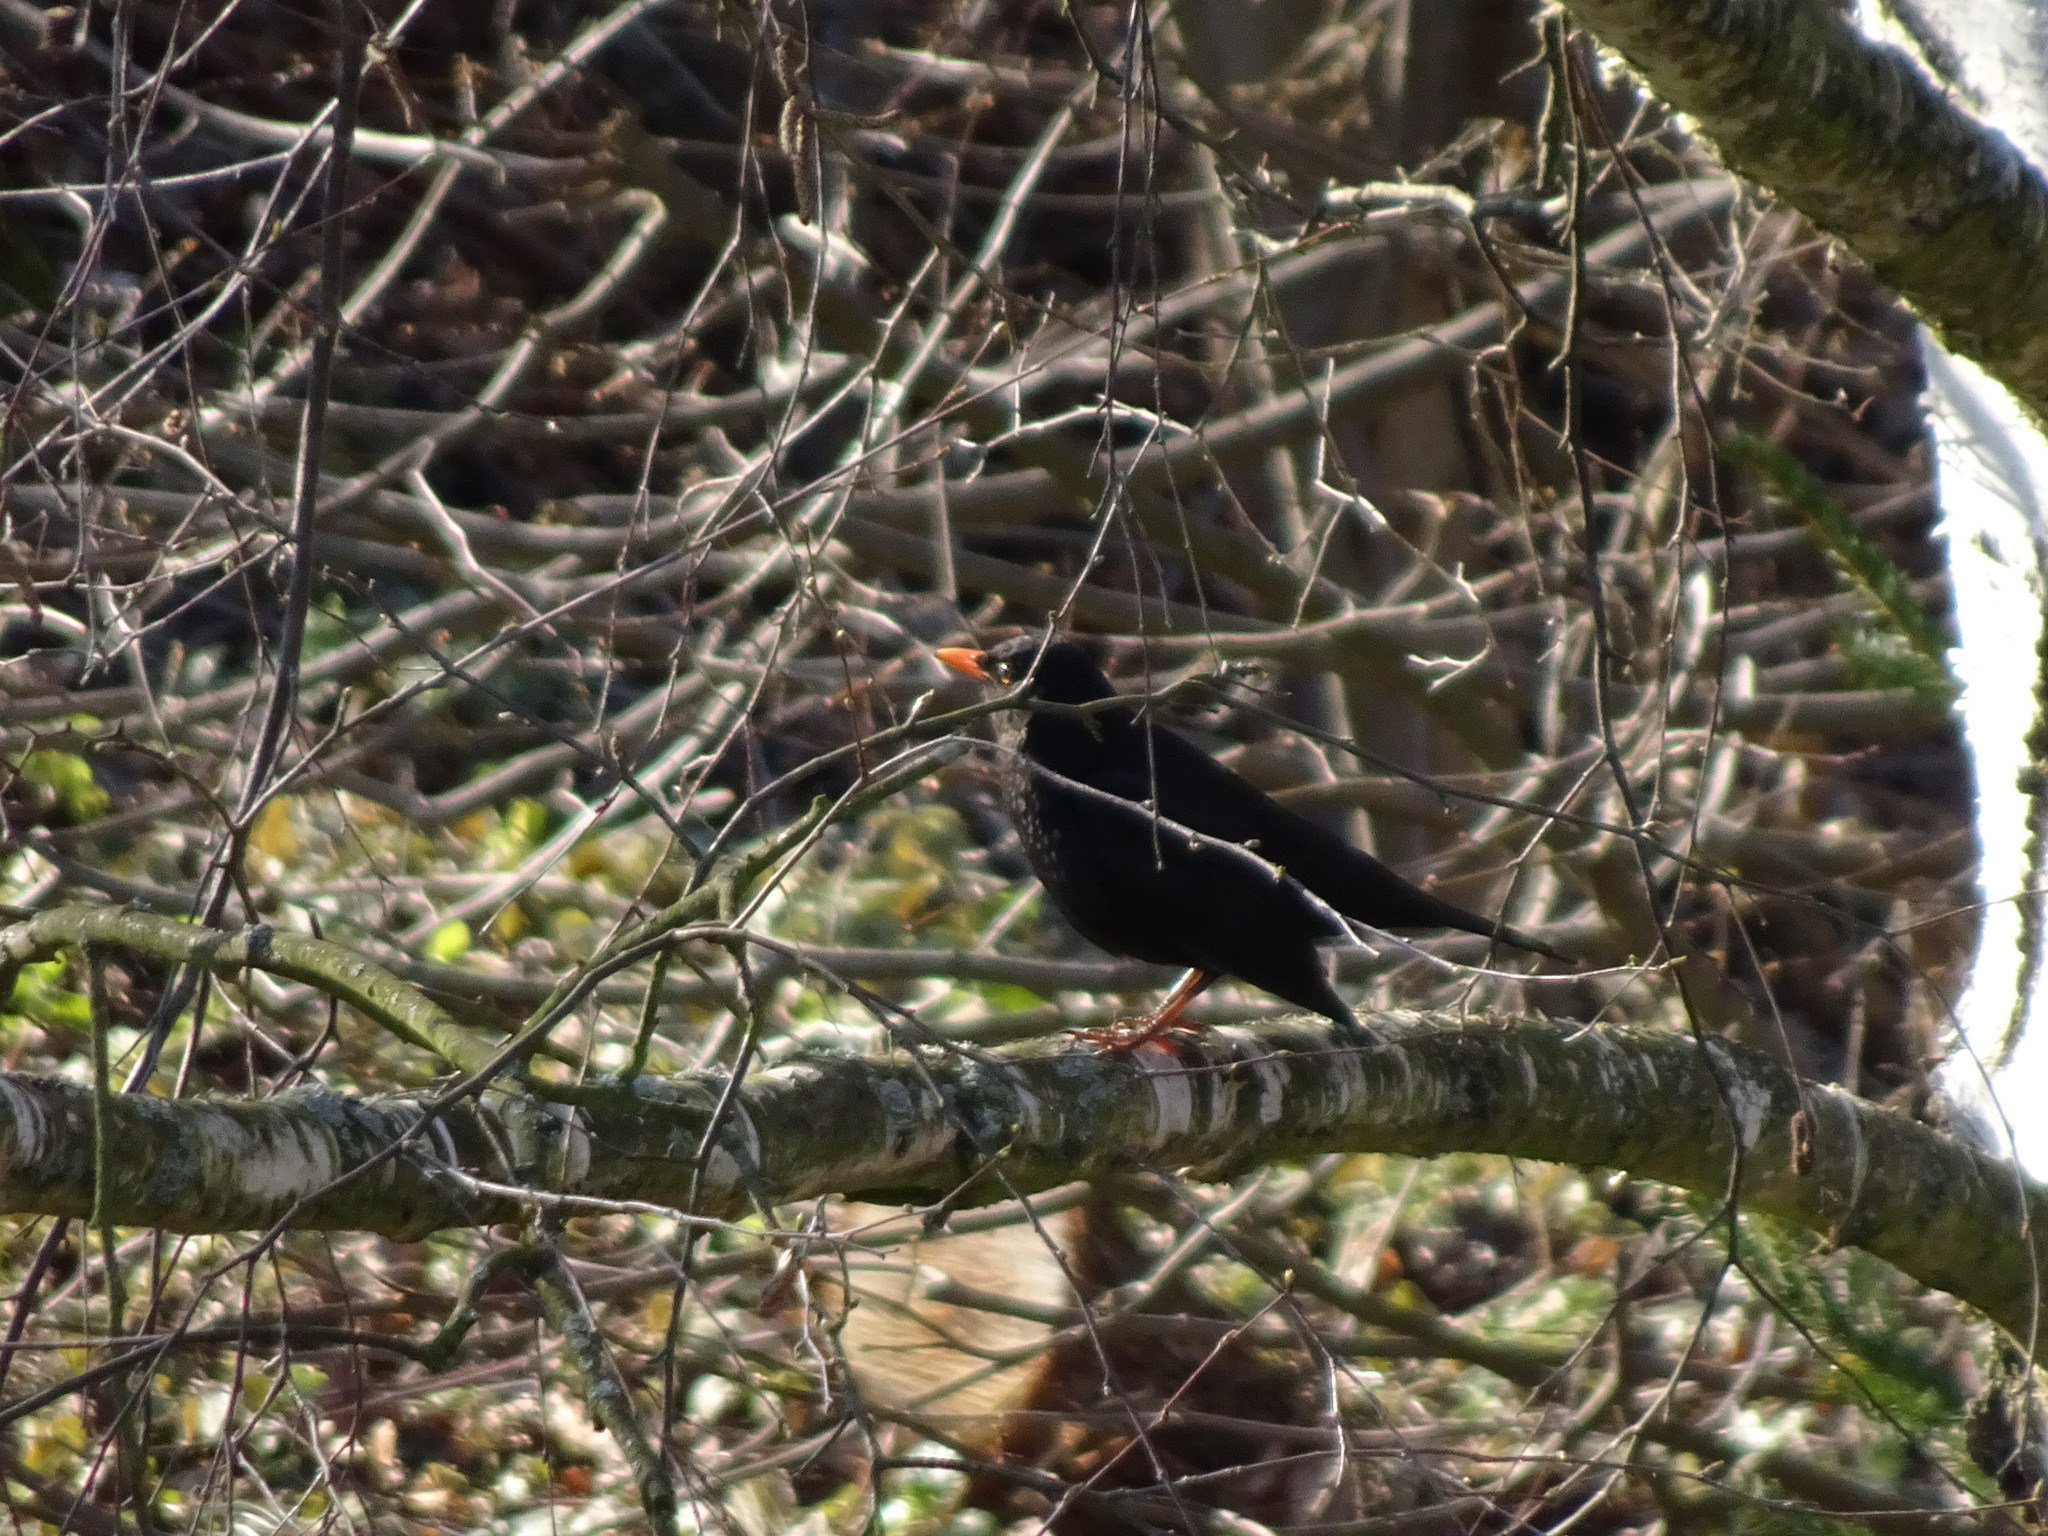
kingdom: Animalia
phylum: Chordata
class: Aves
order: Passeriformes
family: Turdidae
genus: Turdus
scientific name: Turdus merula
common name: Common blackbird
